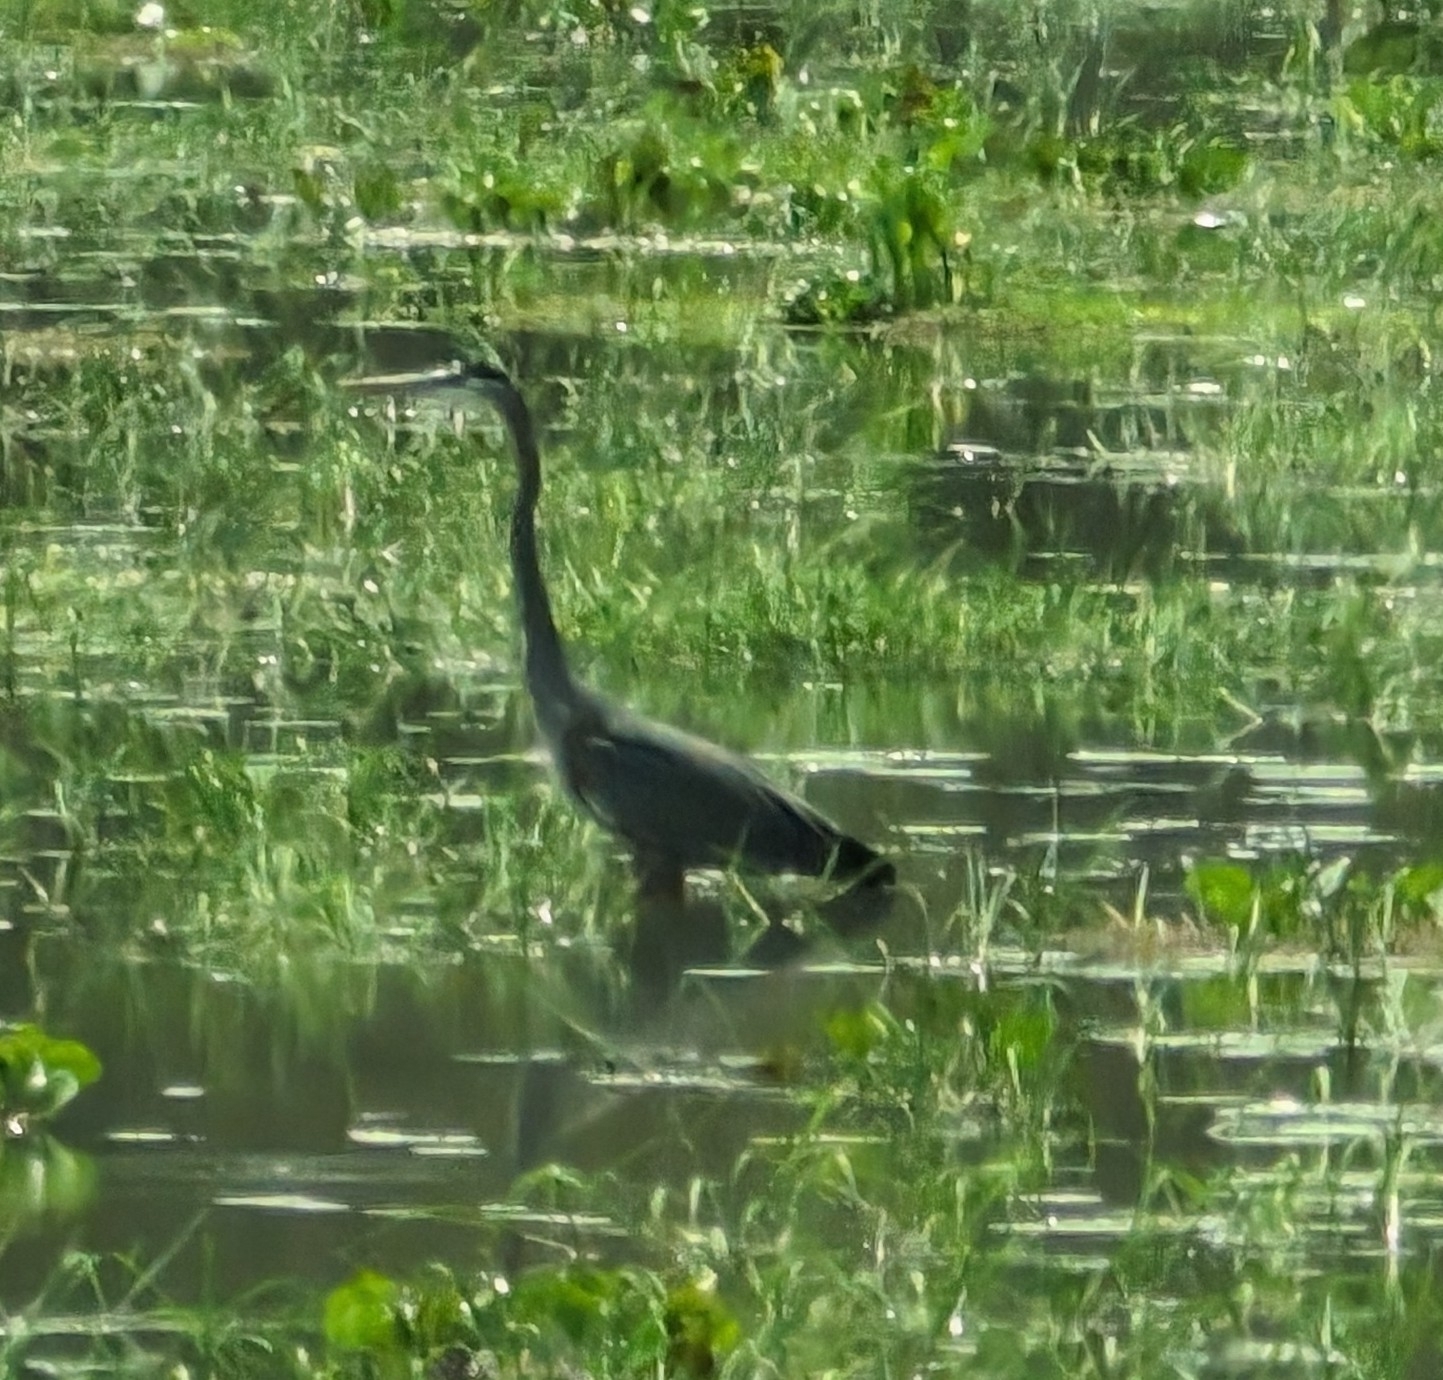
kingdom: Animalia
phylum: Chordata
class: Aves
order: Pelecaniformes
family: Ardeidae
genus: Ardea
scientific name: Ardea herodias
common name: Great blue heron
